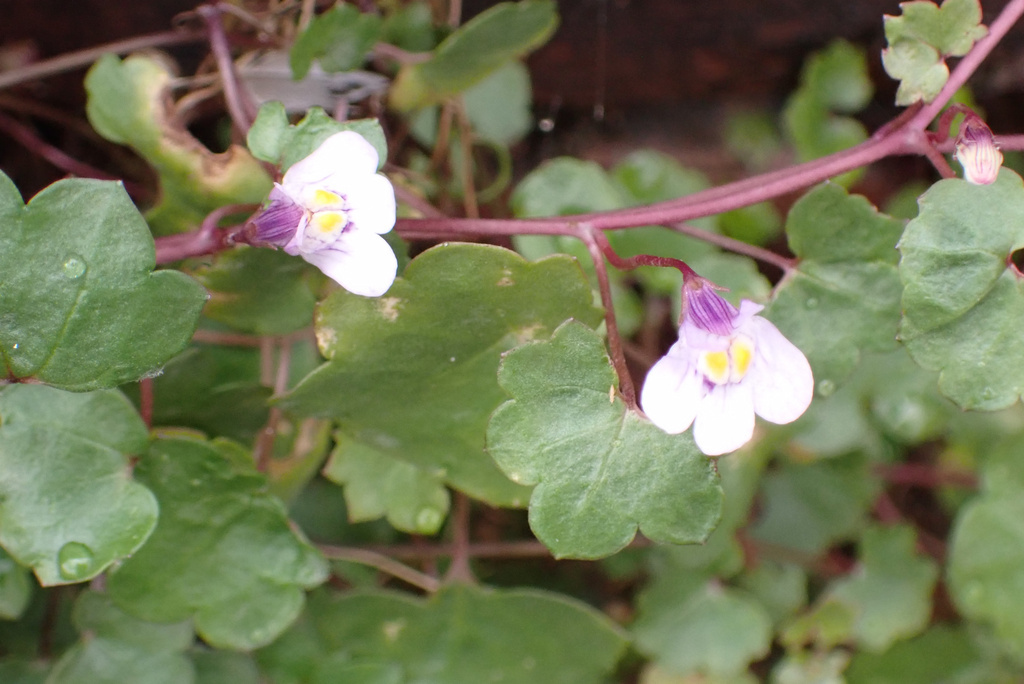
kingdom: Plantae
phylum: Tracheophyta
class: Magnoliopsida
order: Lamiales
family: Plantaginaceae
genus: Cymbalaria
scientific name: Cymbalaria muralis
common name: Ivy-leaved toadflax
